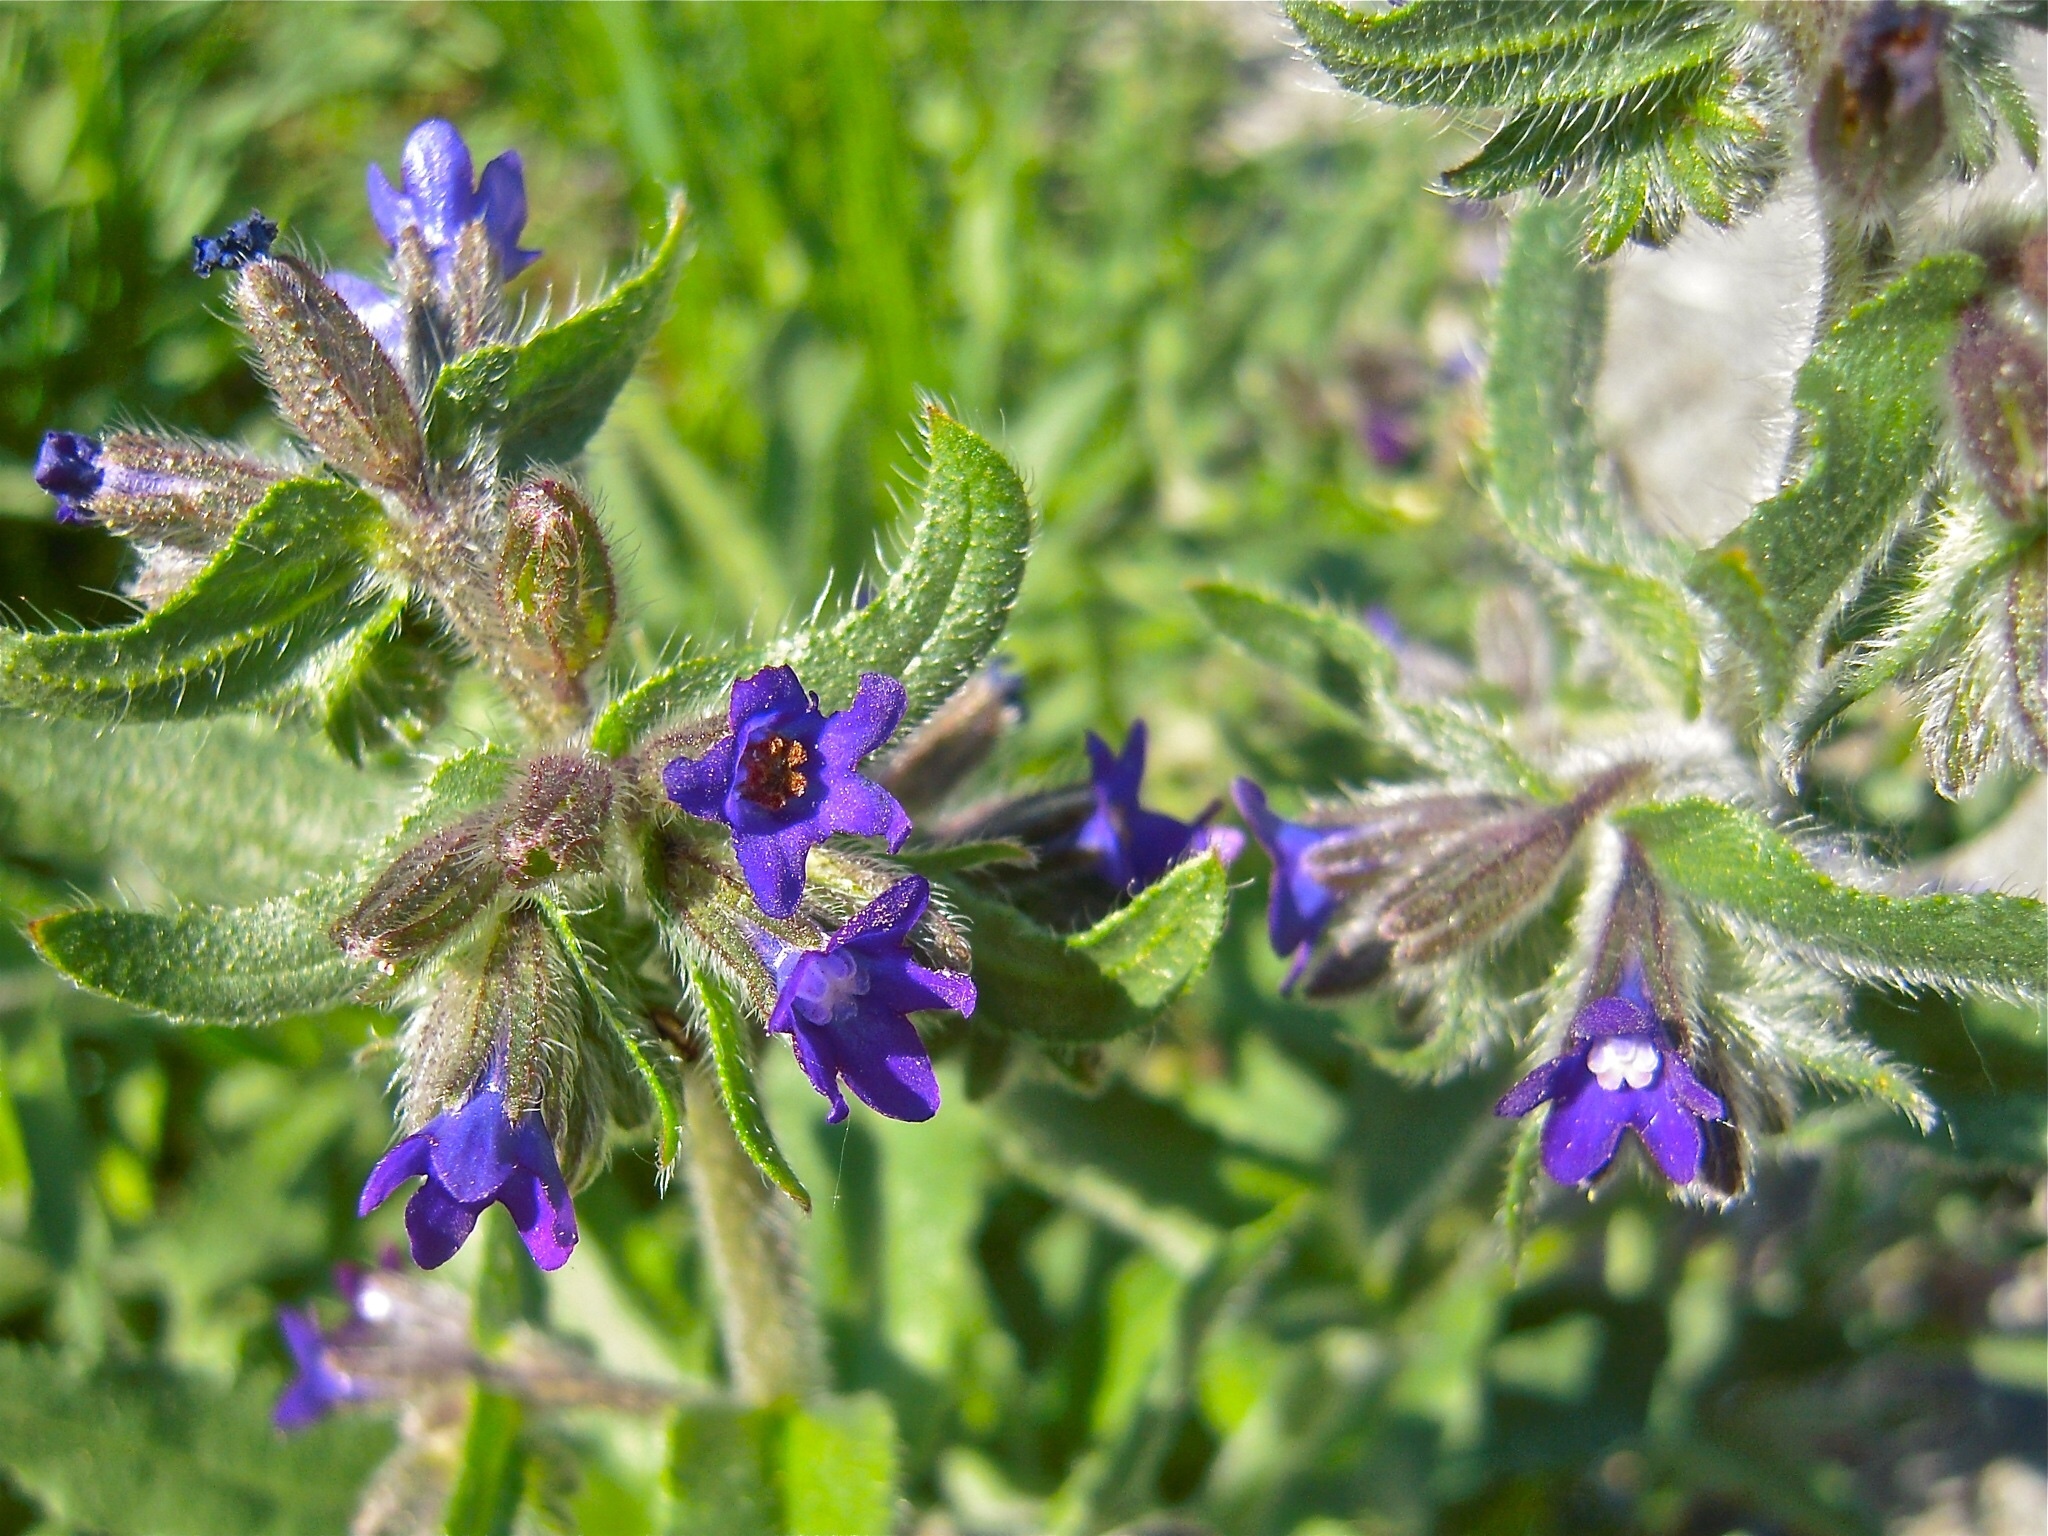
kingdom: Plantae
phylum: Tracheophyta
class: Magnoliopsida
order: Boraginales
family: Boraginaceae
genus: Anchusa
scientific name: Anchusa officinalis
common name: Alkanet
